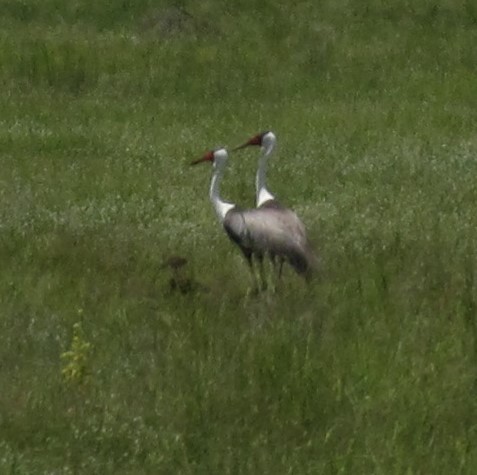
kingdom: Animalia
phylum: Chordata
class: Aves
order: Gruiformes
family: Gruidae
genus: Bugeranus
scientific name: Bugeranus carunculatus
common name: Wattled crane
